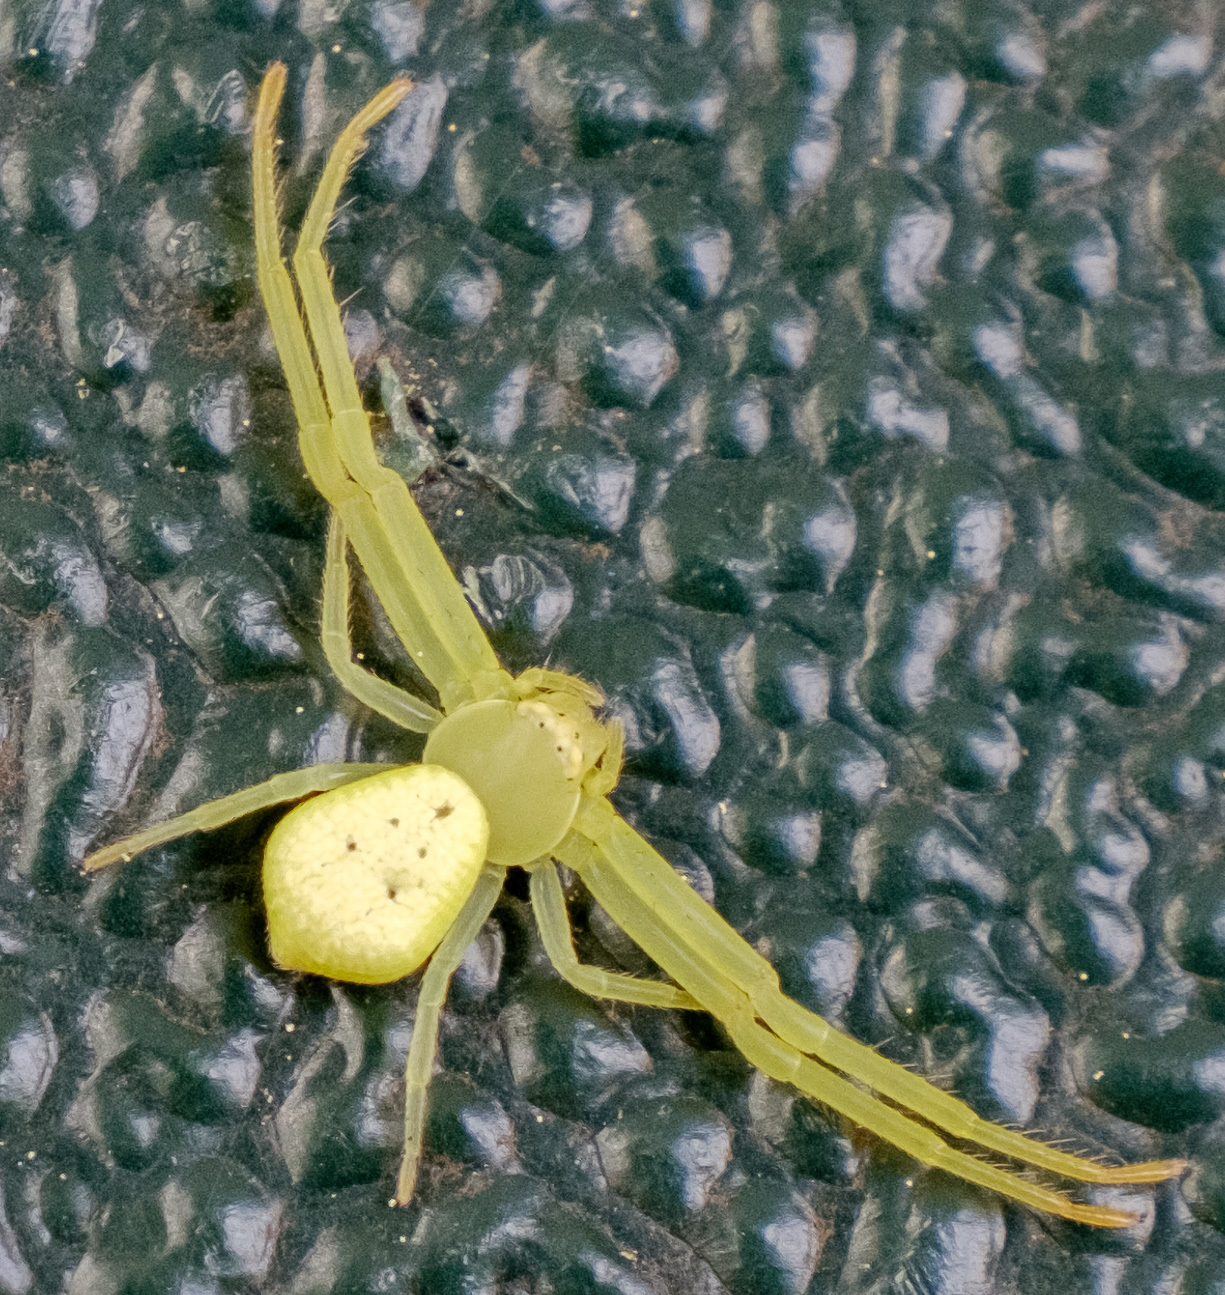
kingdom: Animalia
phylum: Arthropoda
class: Arachnida
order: Araneae
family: Thomisidae
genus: Misumessus
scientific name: Misumessus oblongus
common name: American green crab spider
